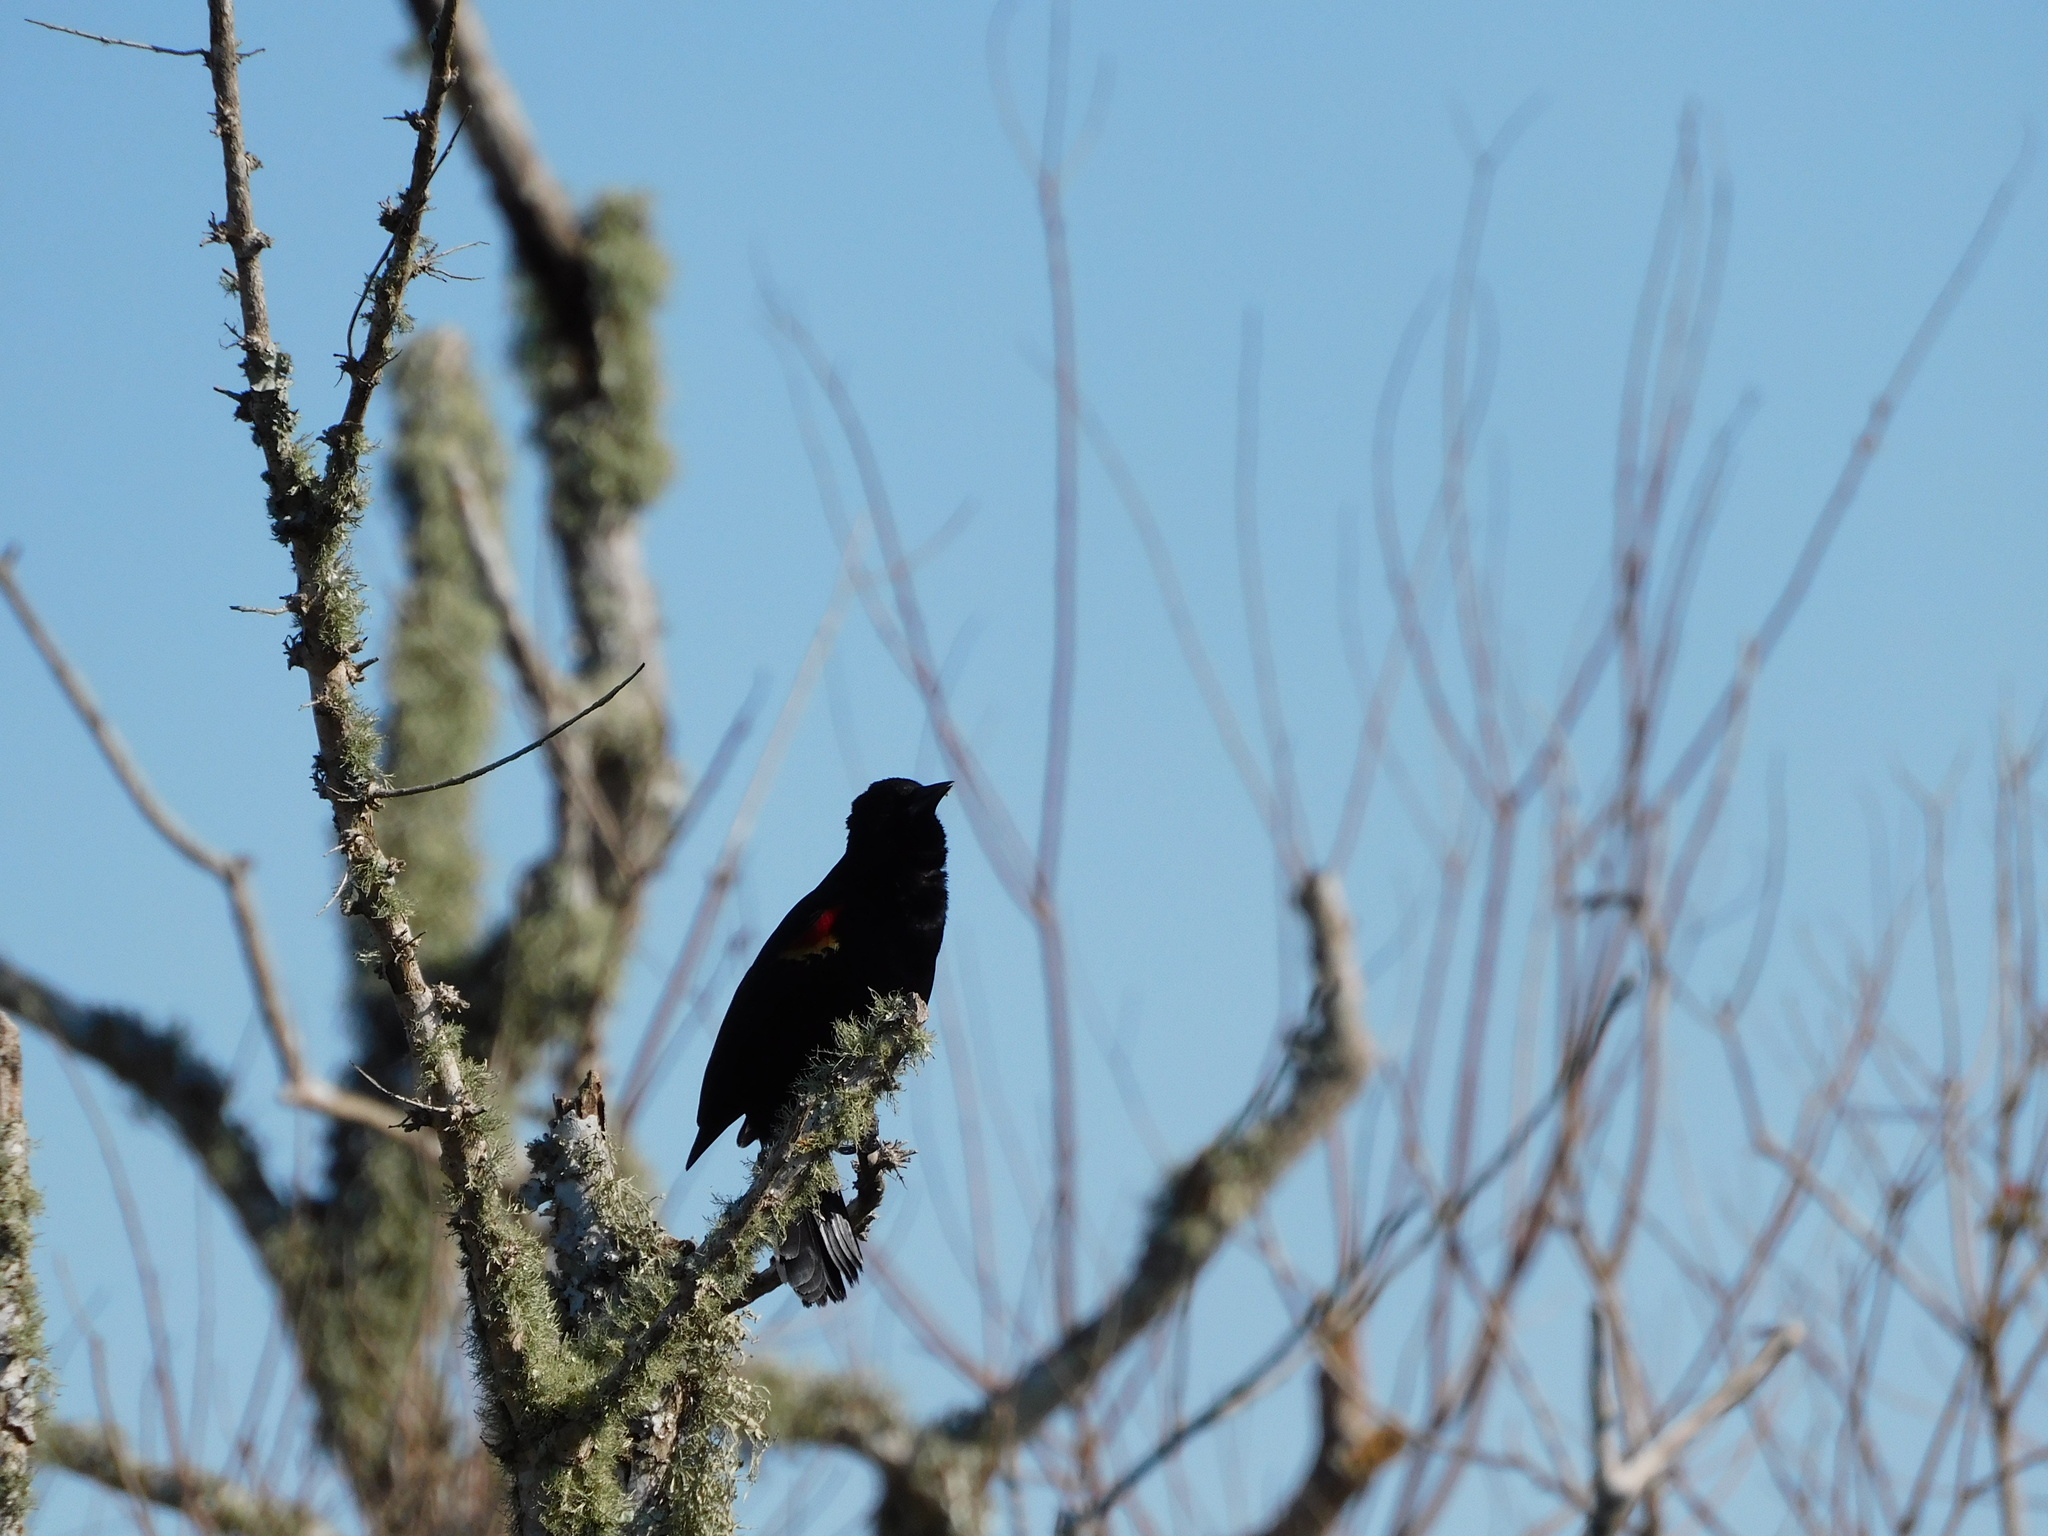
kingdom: Animalia
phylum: Chordata
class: Aves
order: Passeriformes
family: Icteridae
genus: Agelaius
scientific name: Agelaius phoeniceus
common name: Red-winged blackbird
